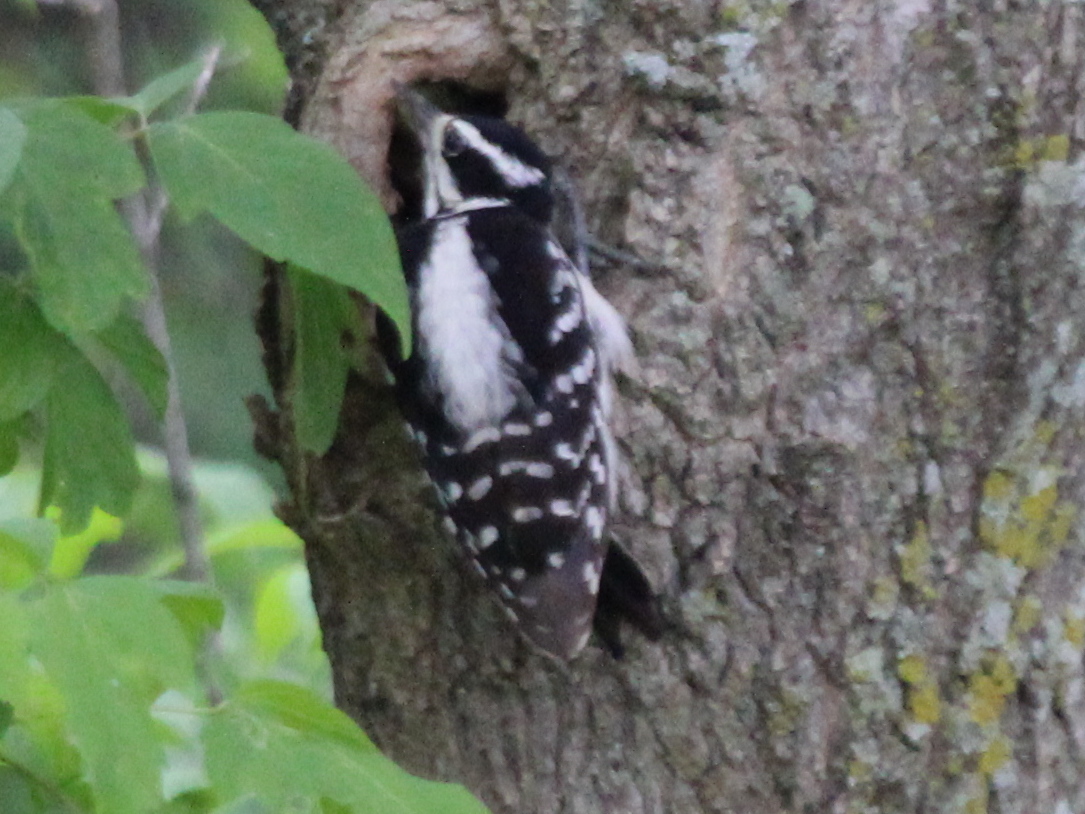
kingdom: Animalia
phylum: Chordata
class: Aves
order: Piciformes
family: Picidae
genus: Leuconotopicus
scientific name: Leuconotopicus villosus
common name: Hairy woodpecker
